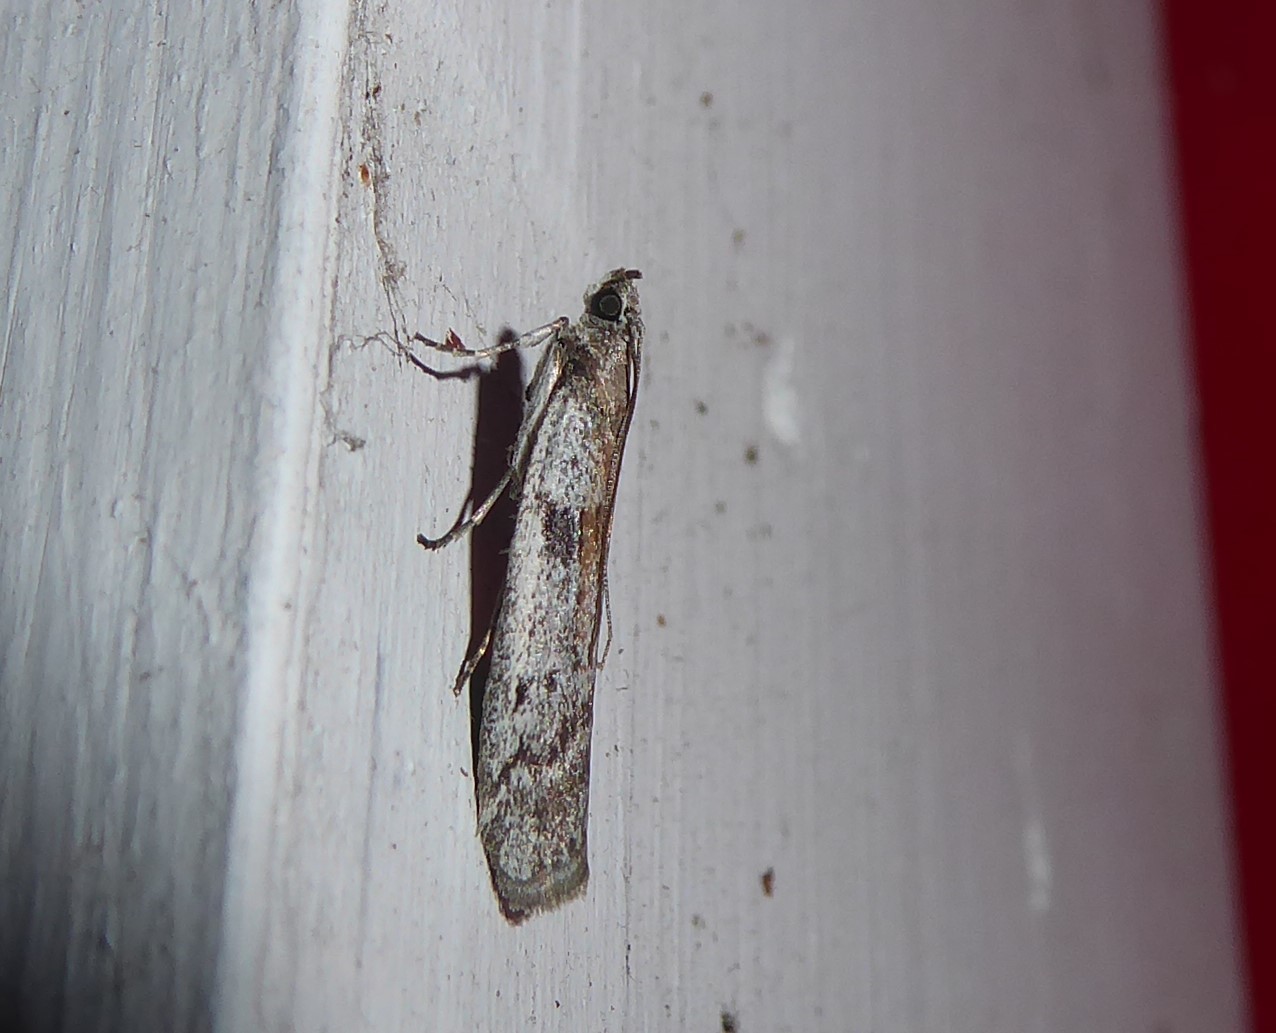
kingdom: Animalia
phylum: Arthropoda
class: Insecta
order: Lepidoptera
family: Pyralidae
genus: Patagoniodes
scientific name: Patagoniodes farinaria
